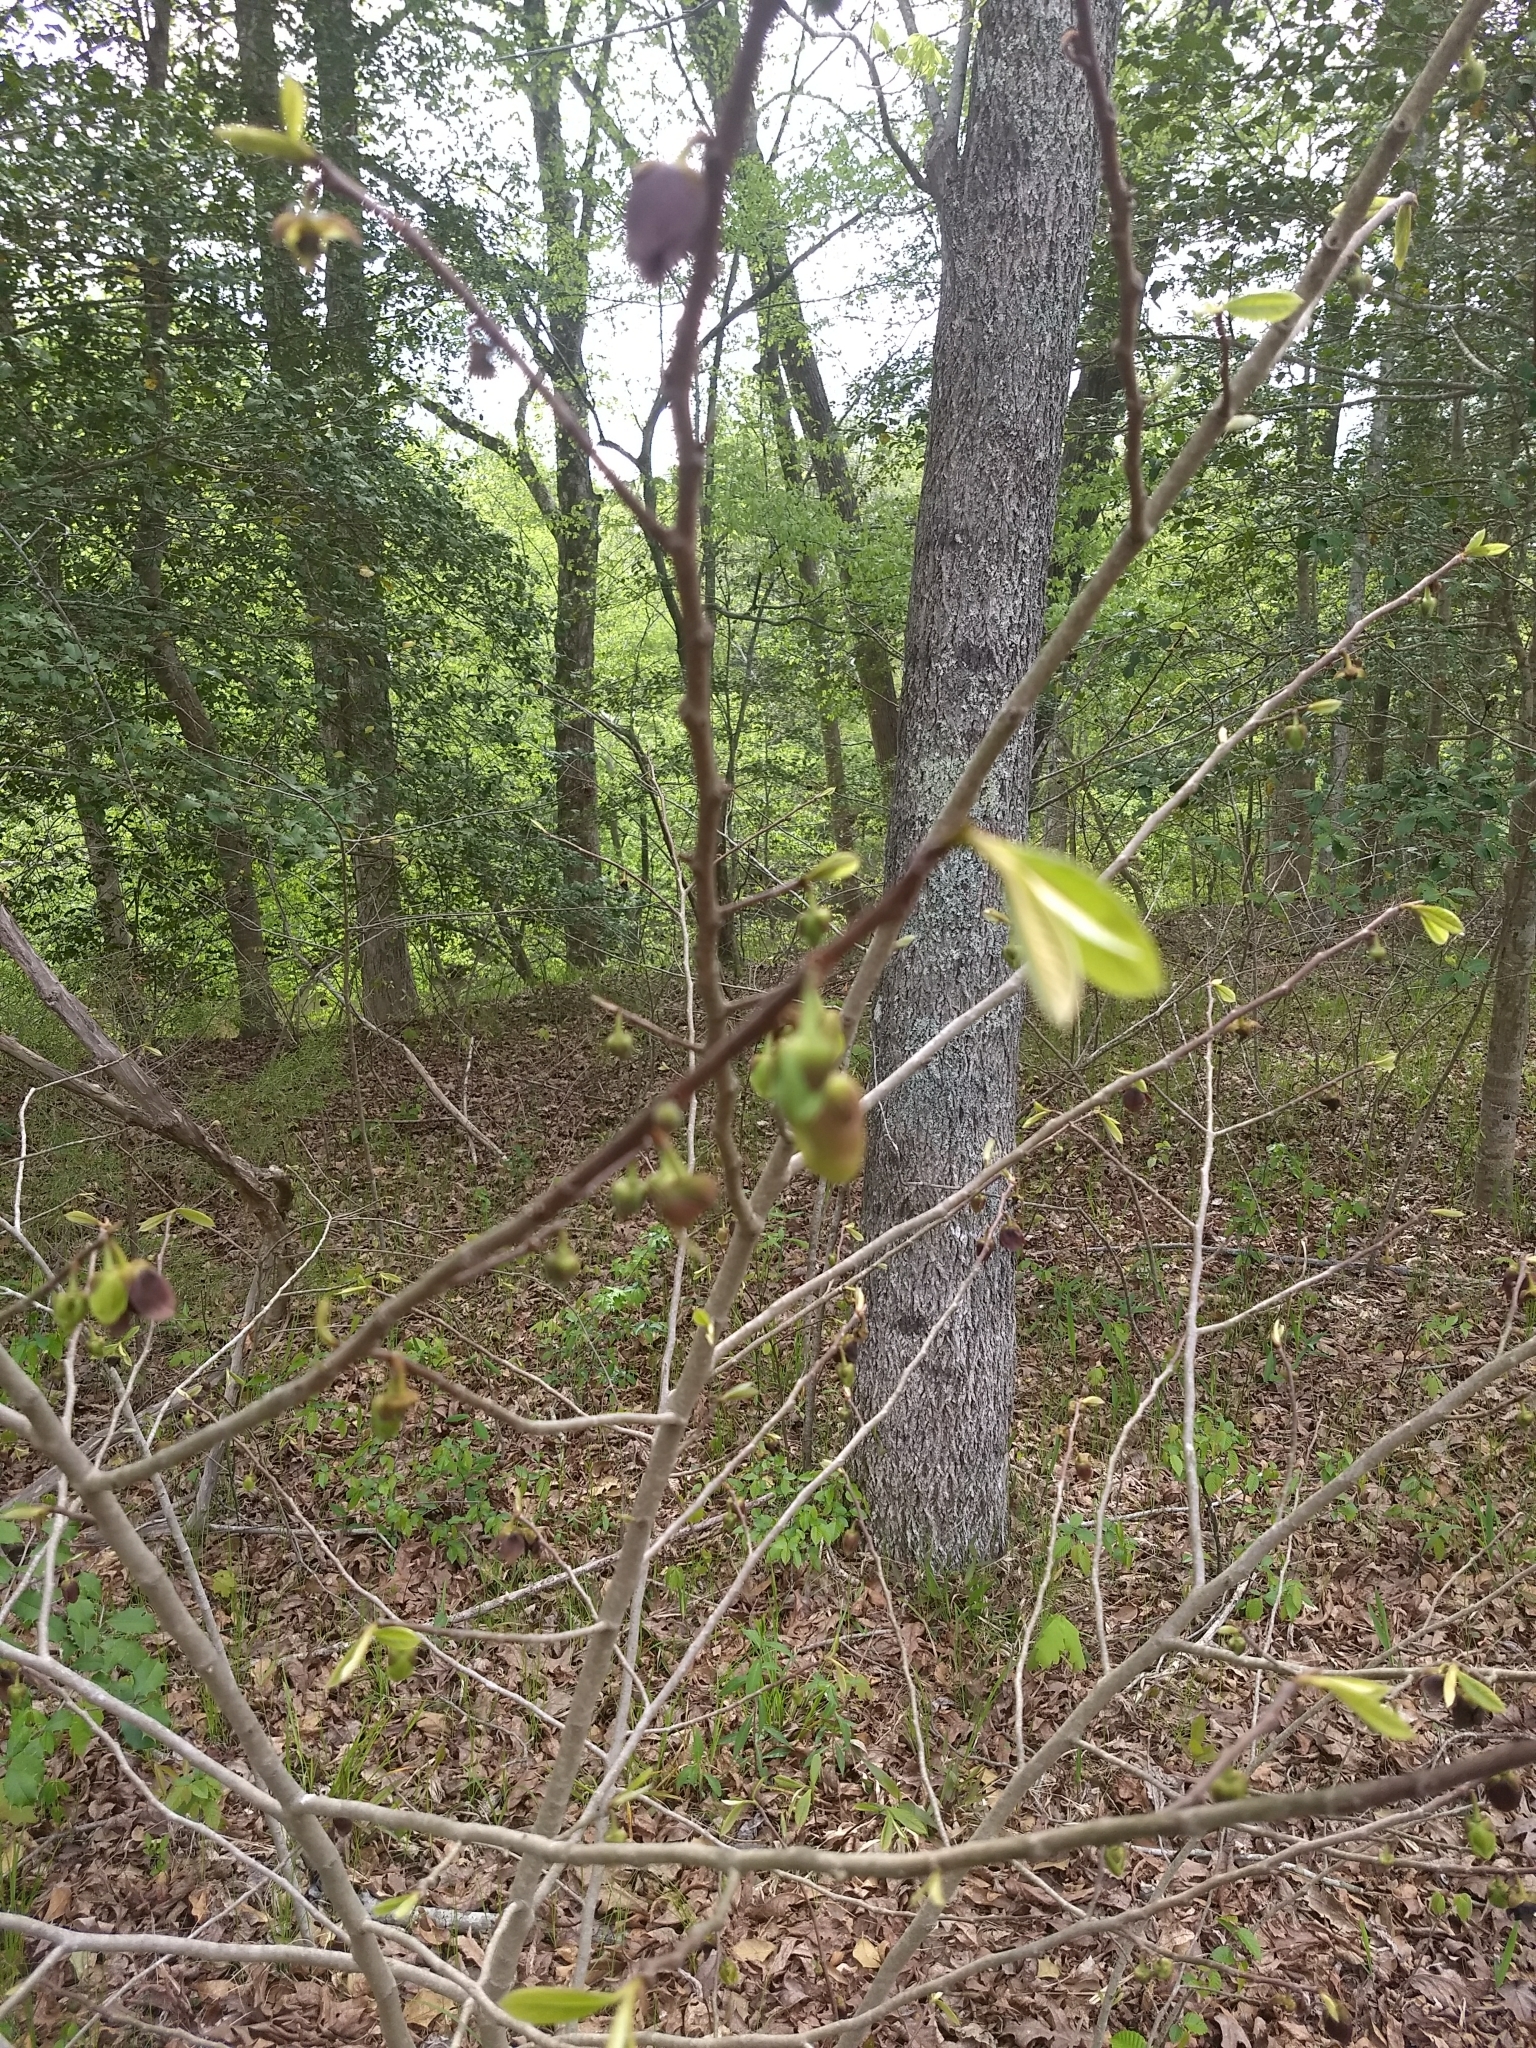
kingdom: Plantae
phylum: Tracheophyta
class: Magnoliopsida
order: Magnoliales
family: Annonaceae
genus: Asimina
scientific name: Asimina triloba
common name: Dog-banana
